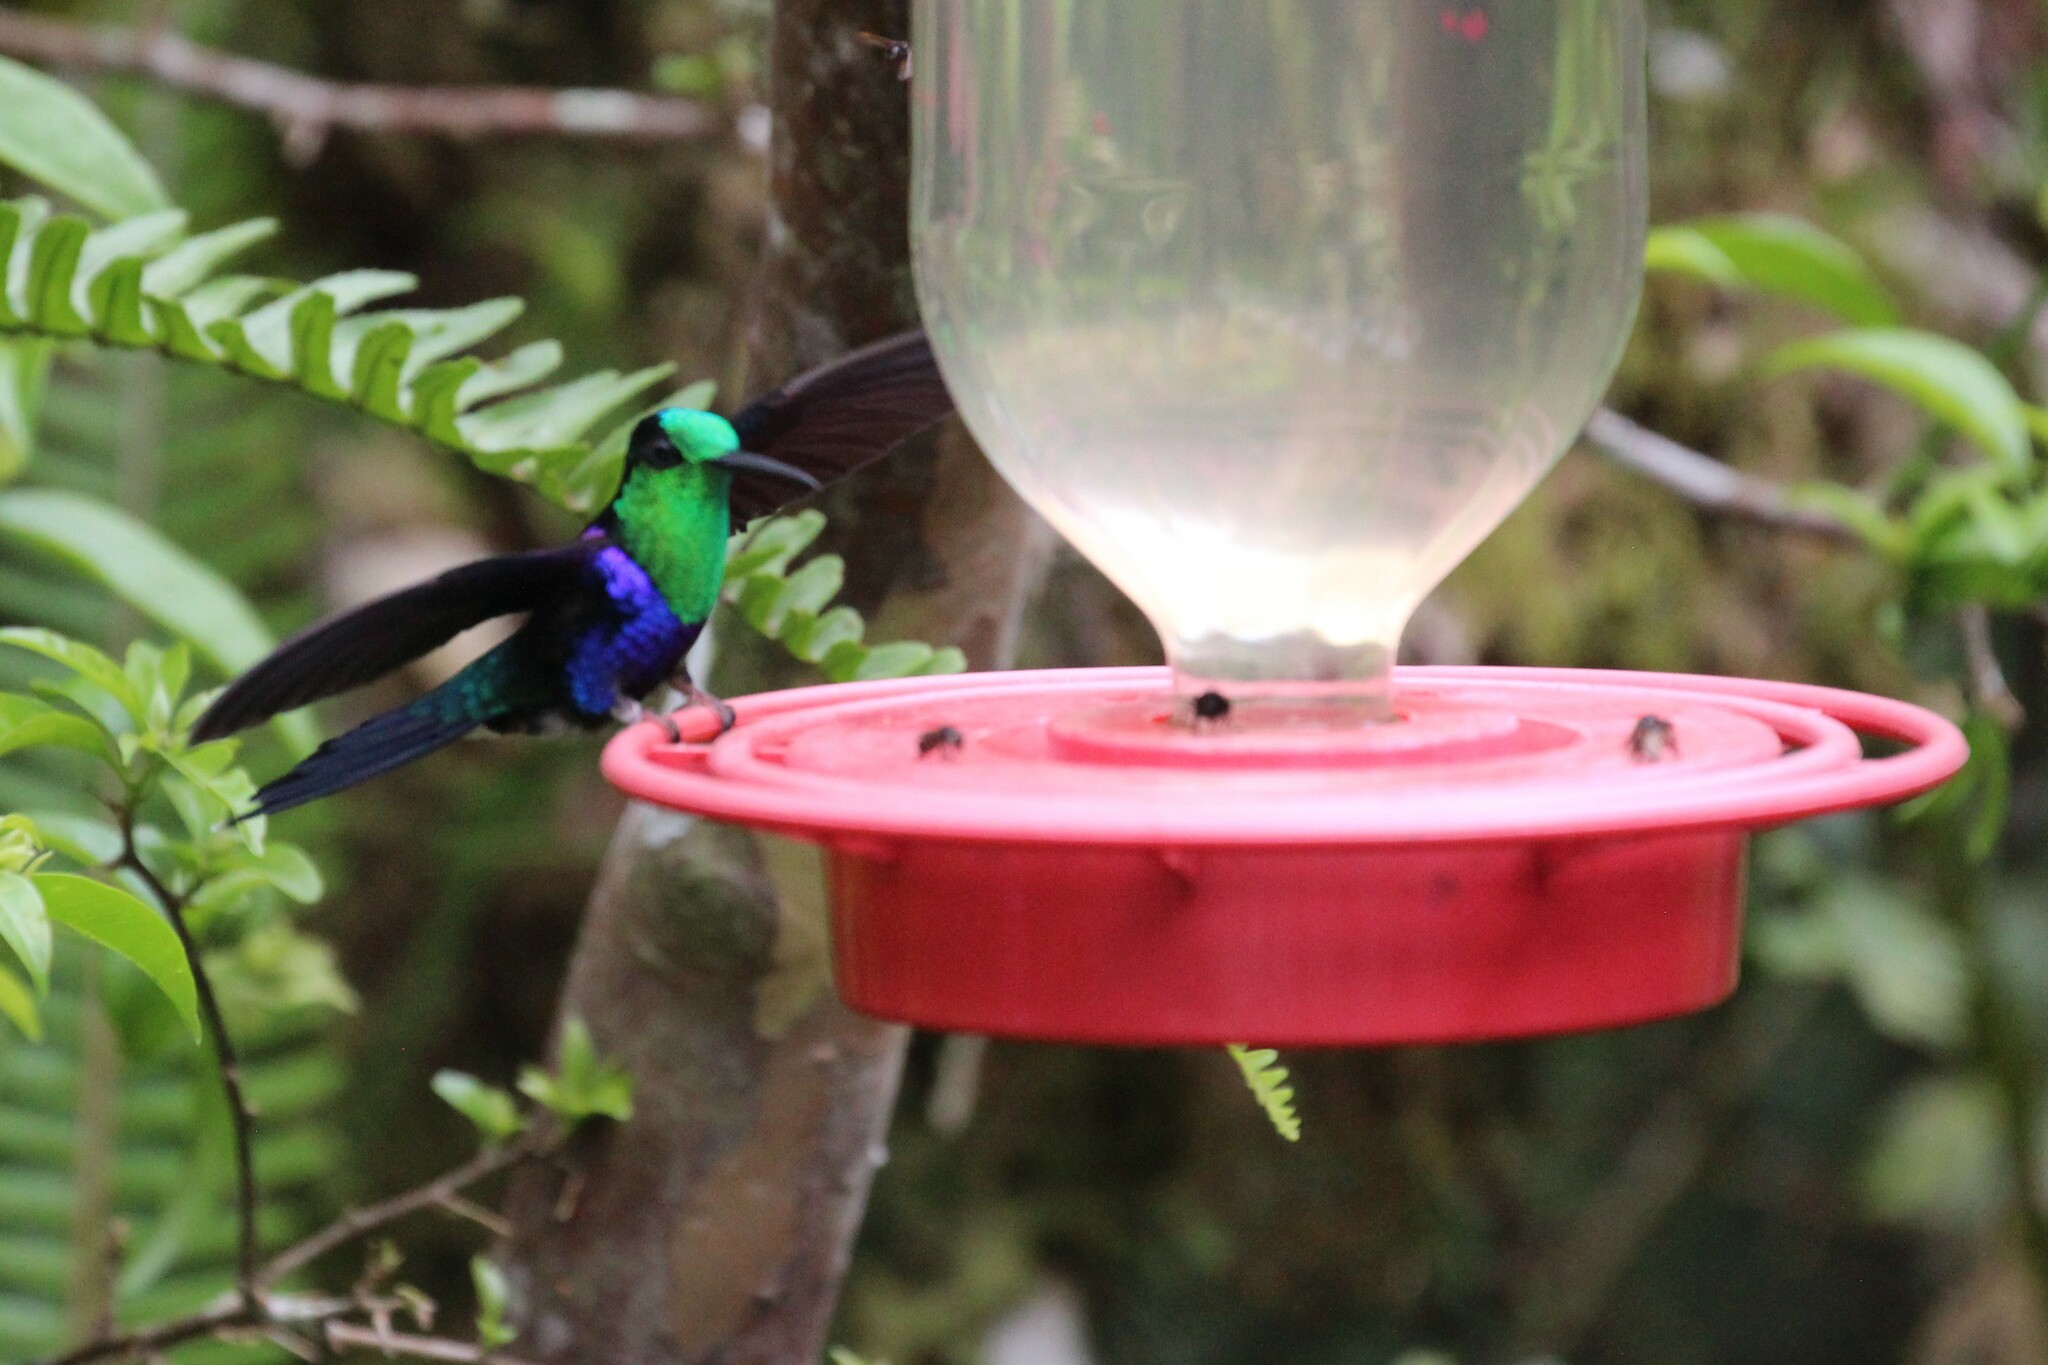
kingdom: Animalia
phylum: Chordata
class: Aves
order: Apodiformes
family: Trochilidae
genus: Thalurania
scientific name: Thalurania colombica
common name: Crowned woodnymph
